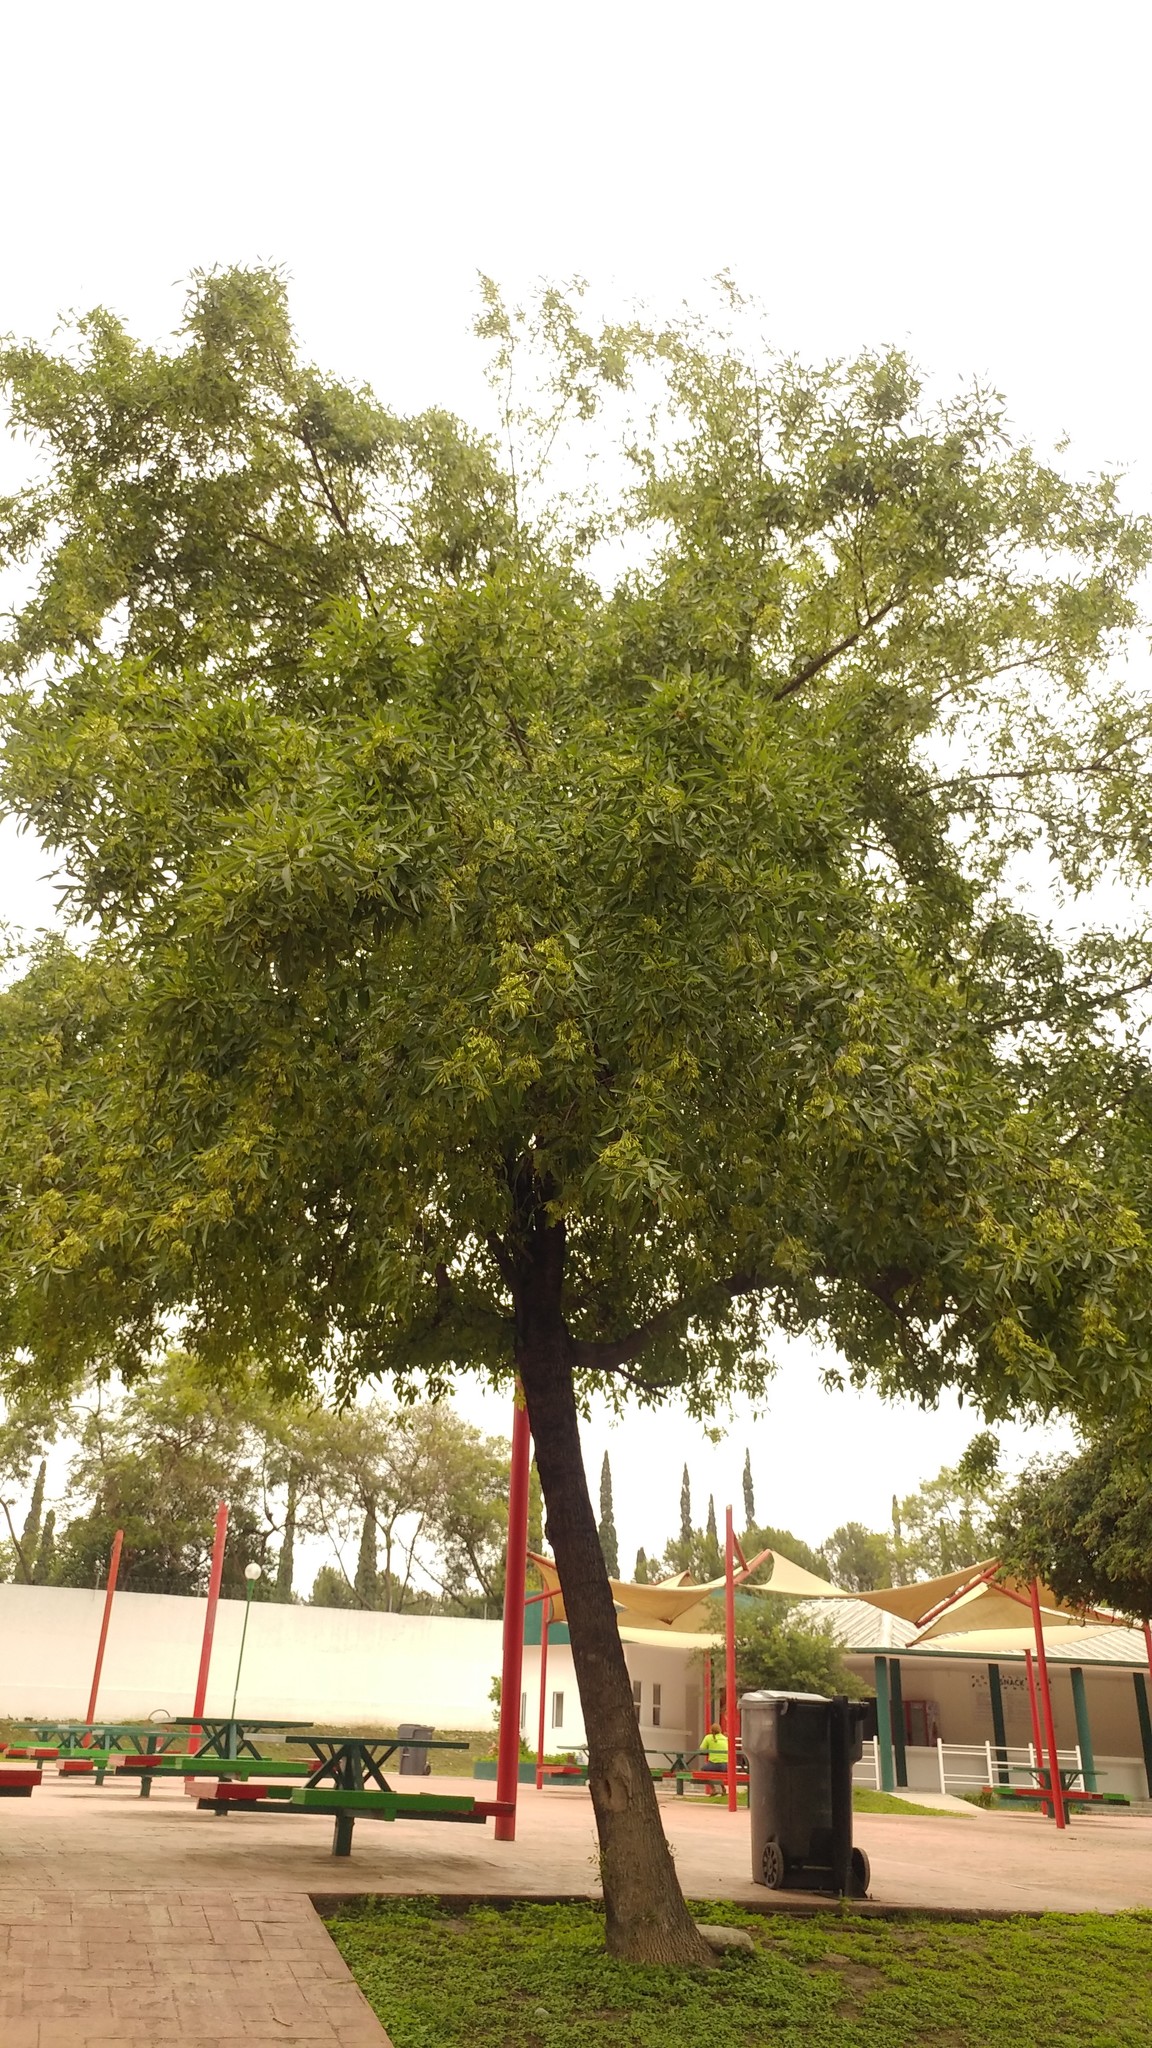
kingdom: Plantae
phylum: Tracheophyta
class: Magnoliopsida
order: Lamiales
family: Oleaceae
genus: Fraxinus
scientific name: Fraxinus americana
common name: White ash
